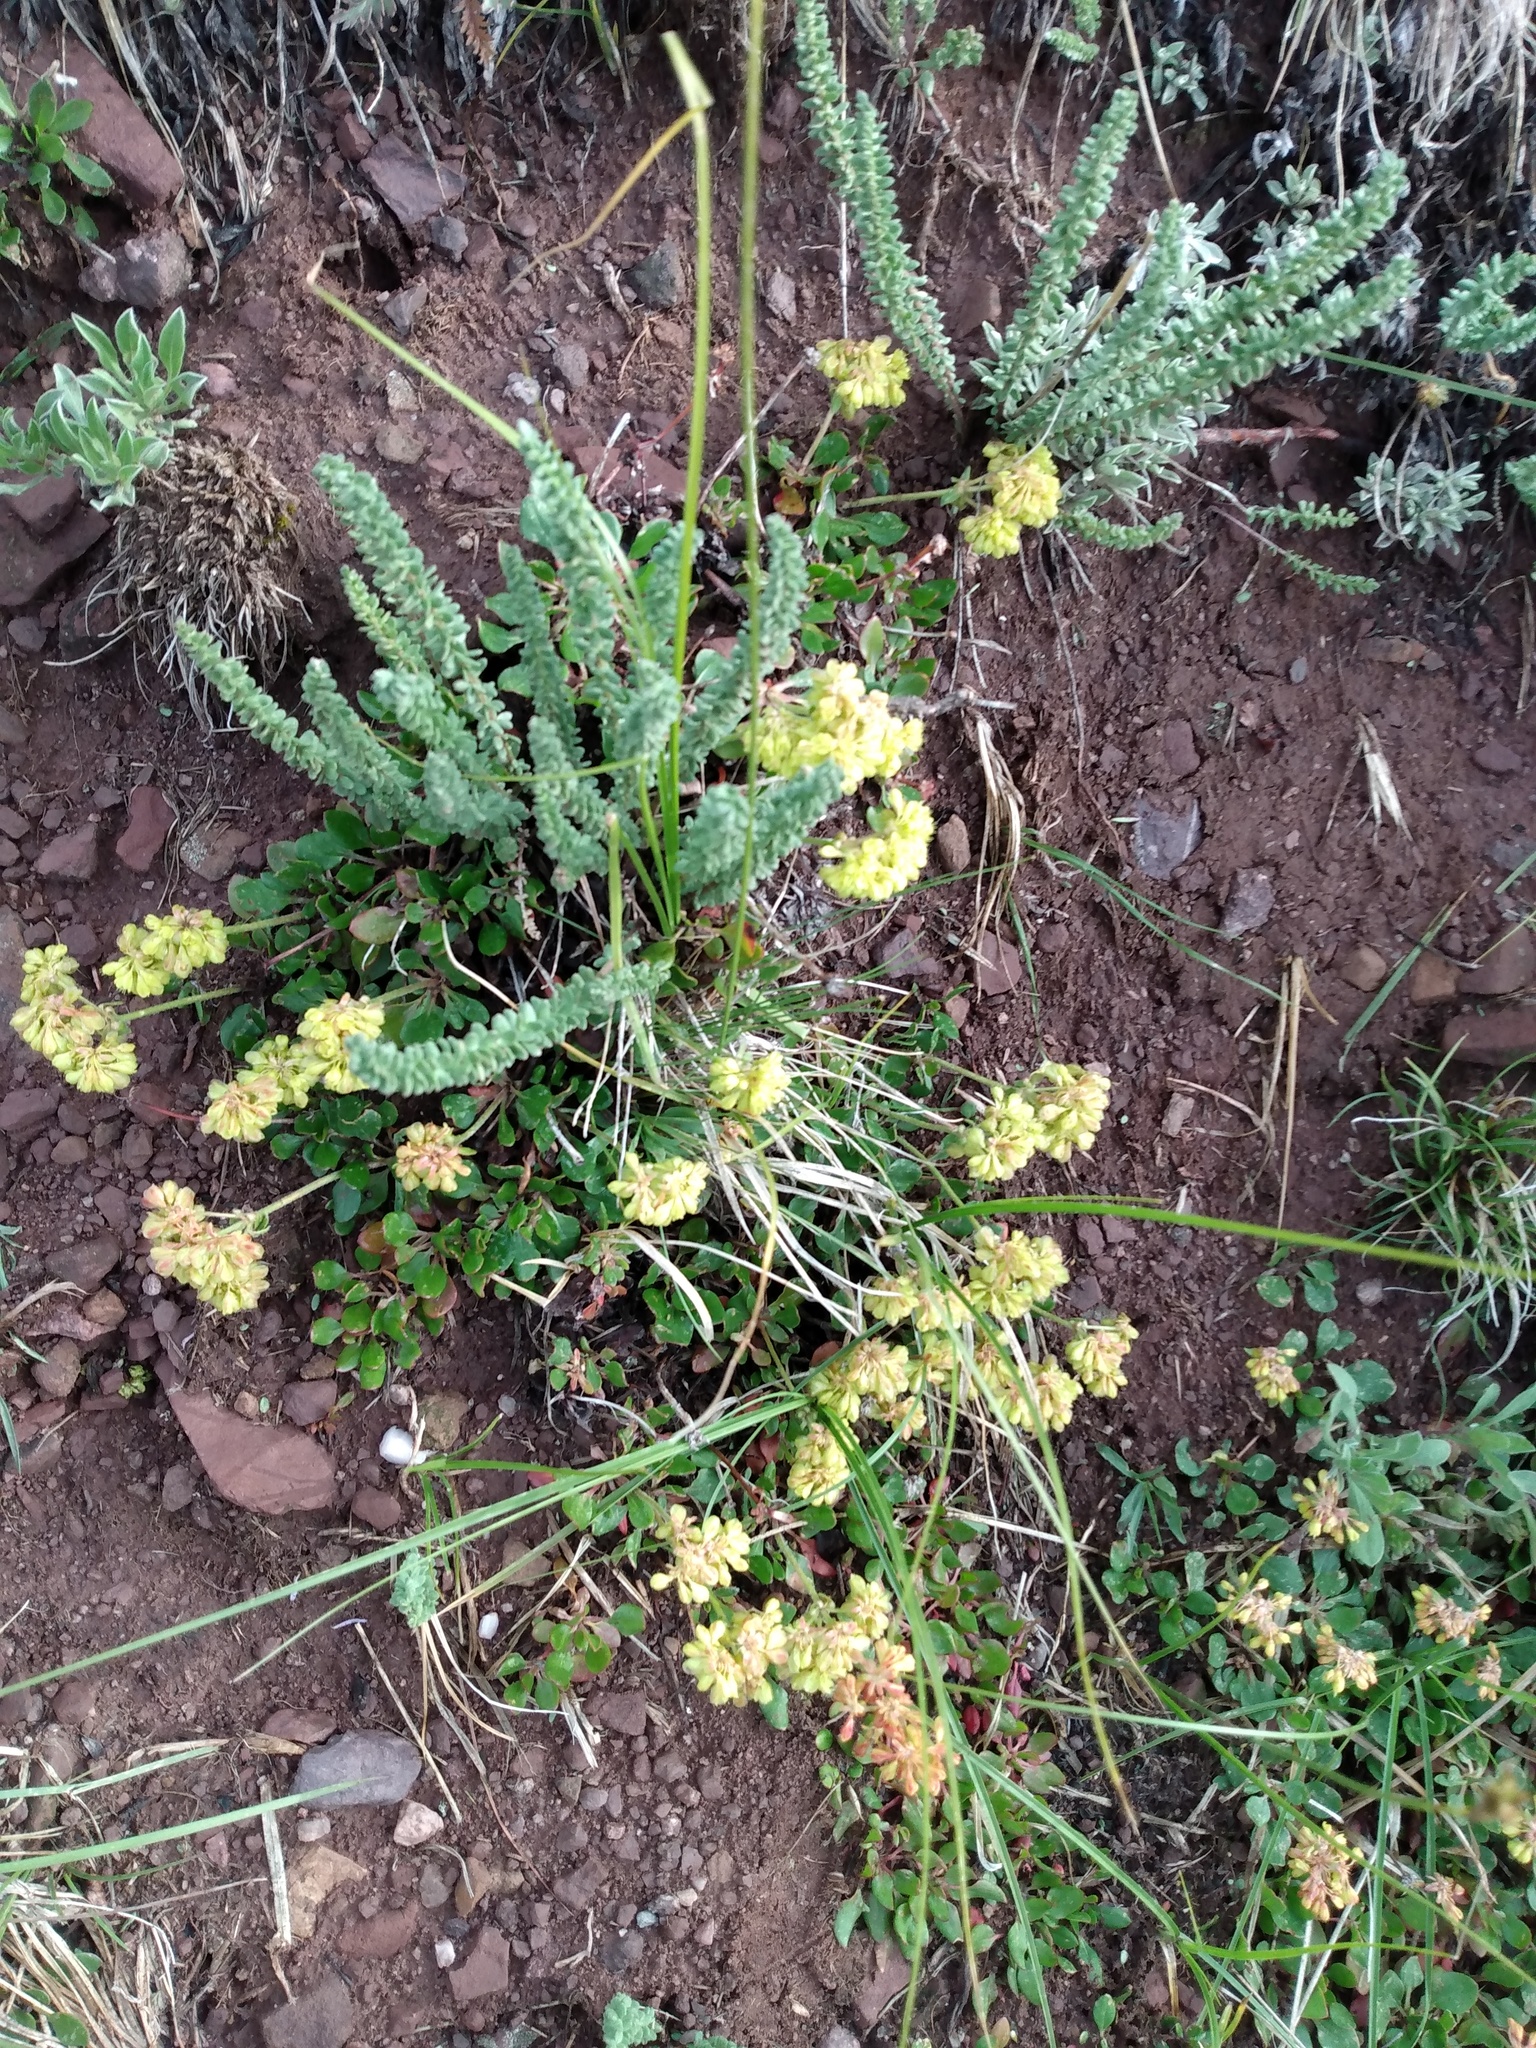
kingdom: Plantae
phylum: Tracheophyta
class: Magnoliopsida
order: Caryophyllales
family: Polygonaceae
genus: Eriogonum
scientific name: Eriogonum umbellatum
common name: Sulfur-buckwheat
